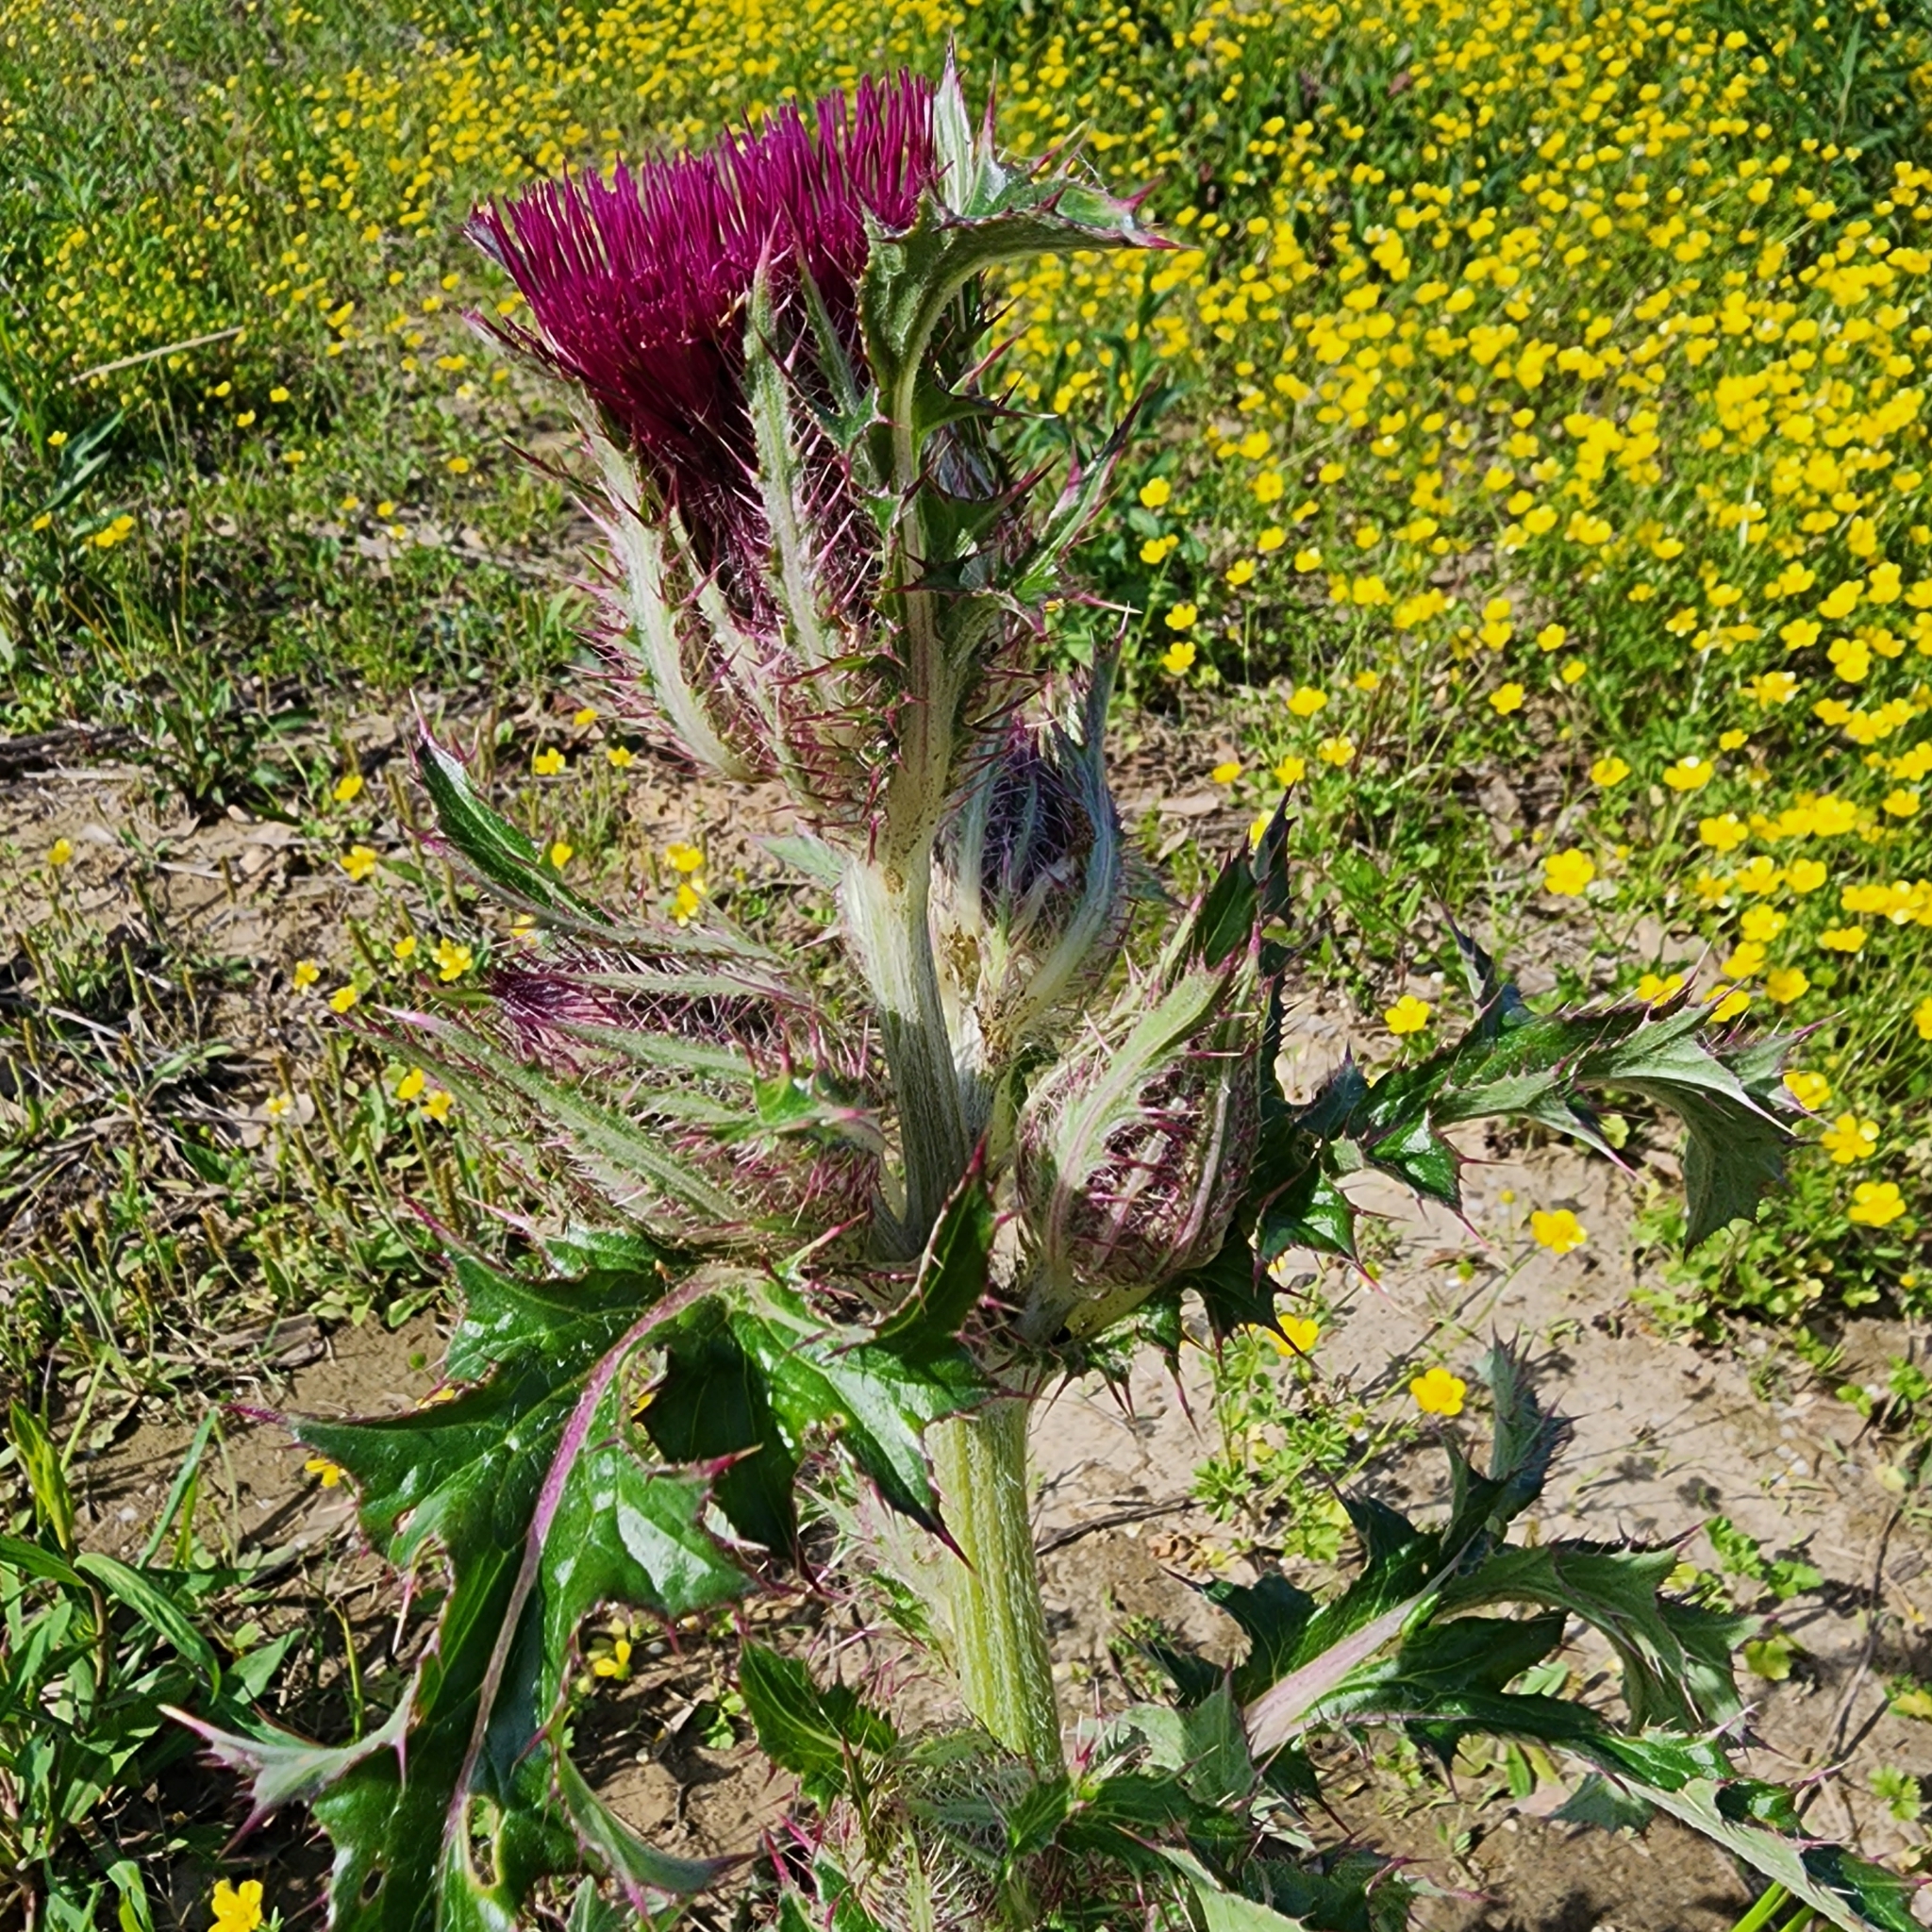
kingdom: Plantae
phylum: Tracheophyta
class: Magnoliopsida
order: Asterales
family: Asteraceae
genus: Cirsium
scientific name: Cirsium horridulum
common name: Bristly thistle
